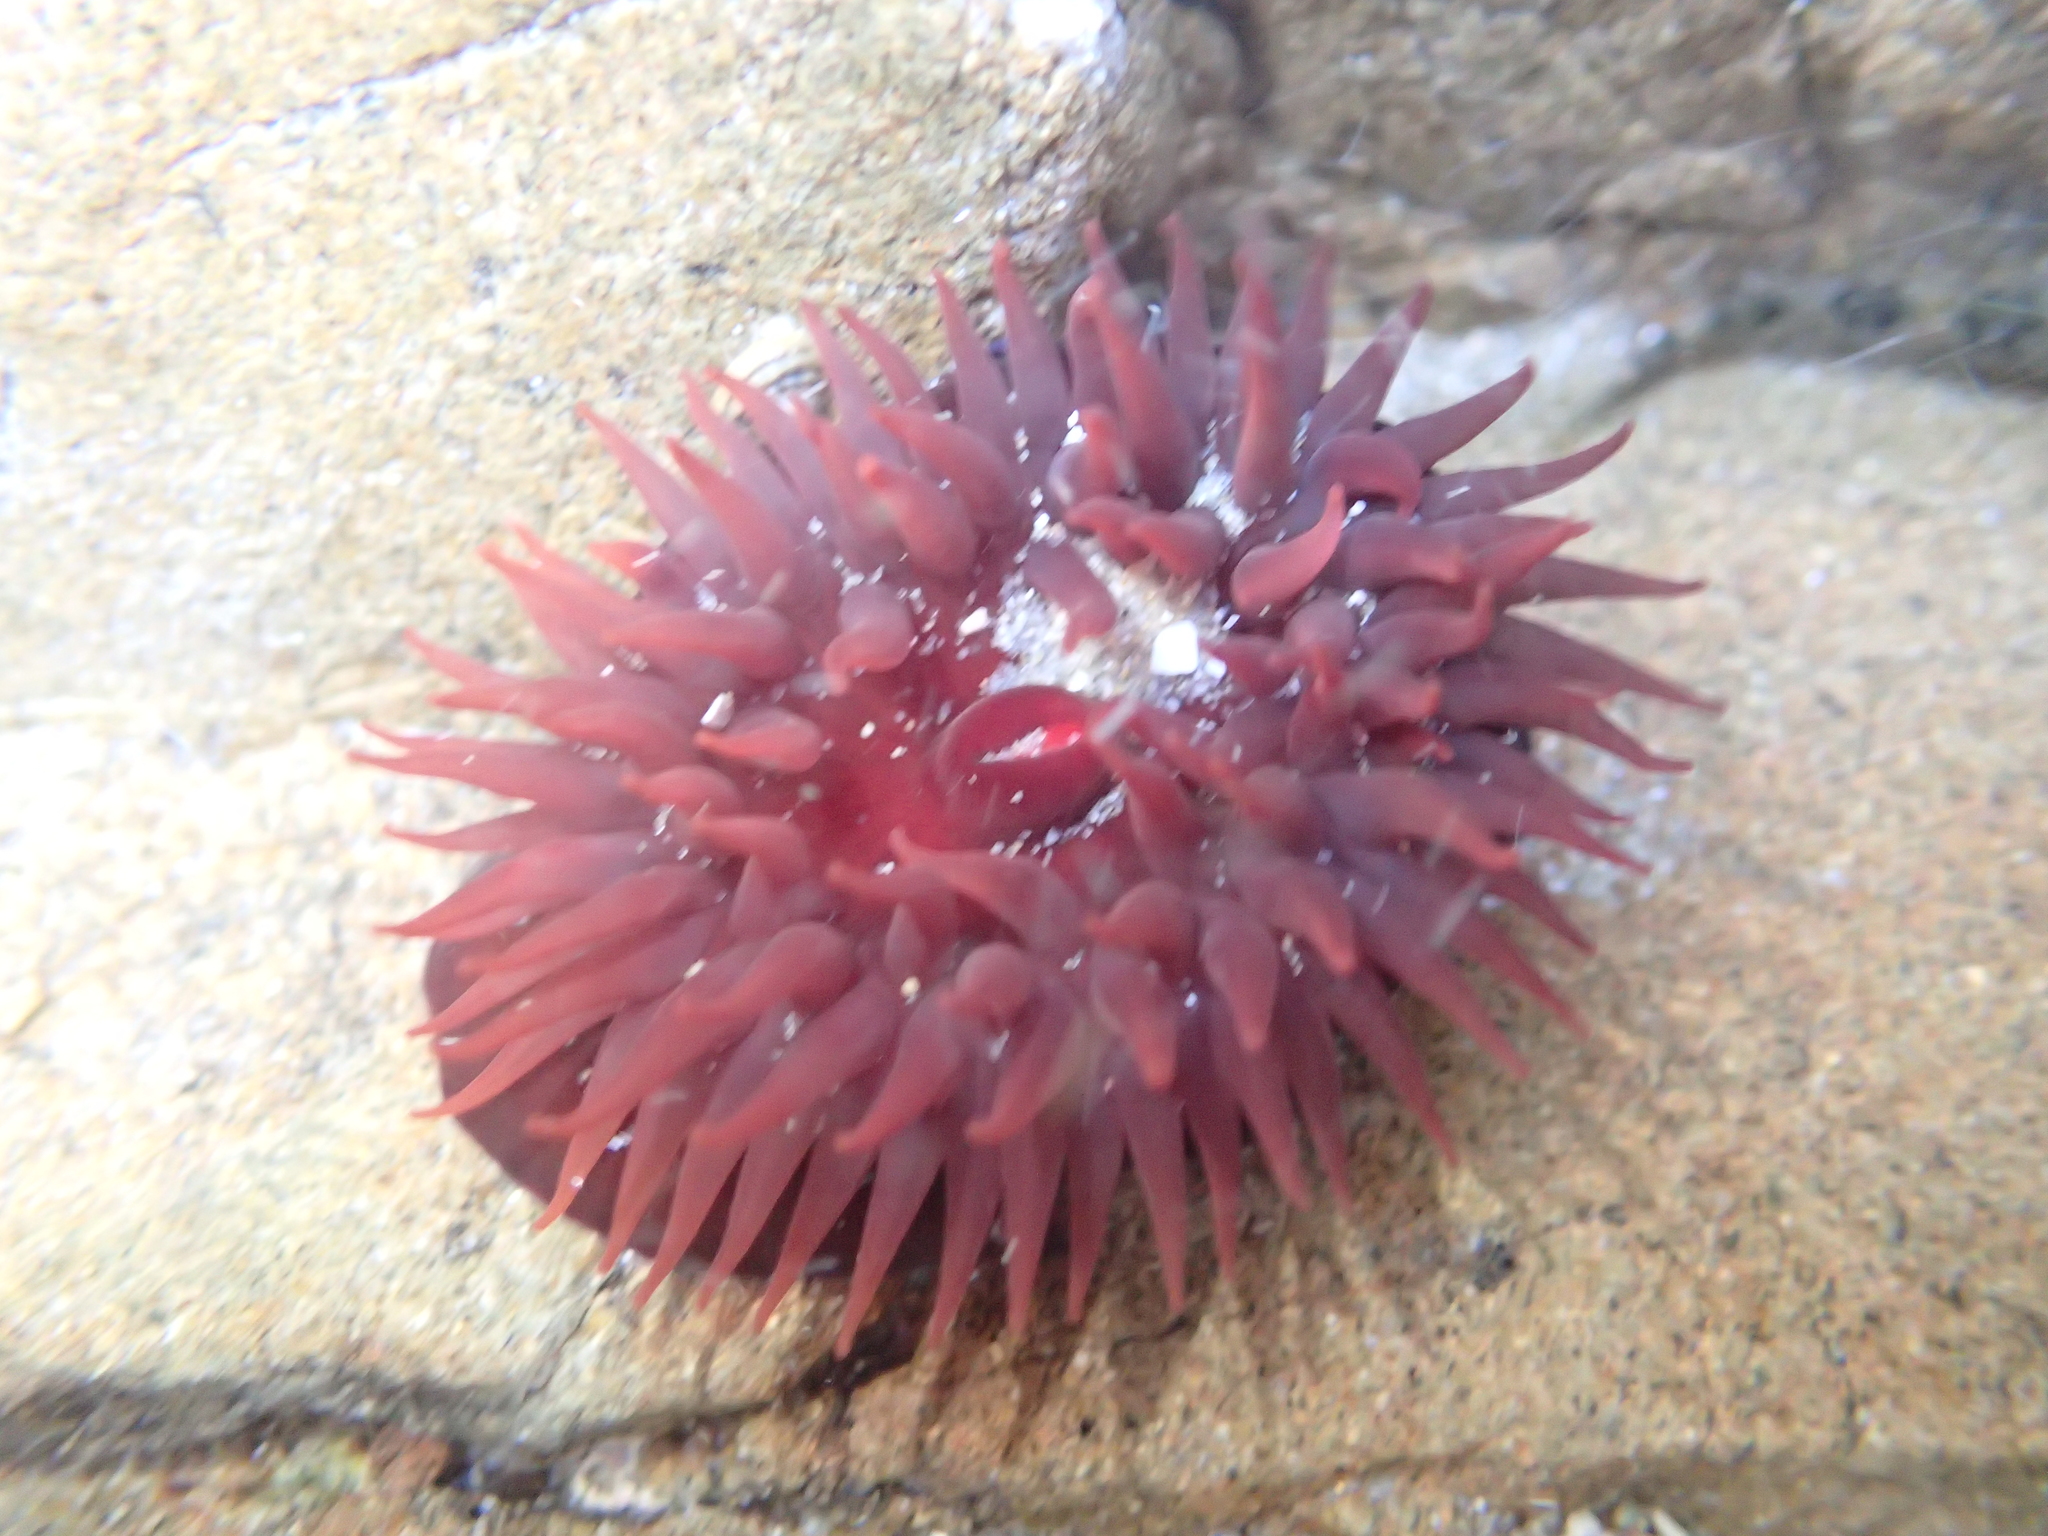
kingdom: Animalia
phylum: Cnidaria
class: Anthozoa
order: Actiniaria
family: Actiniidae
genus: Actinia
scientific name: Actinia tenebrosa
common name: Waratah anemone
